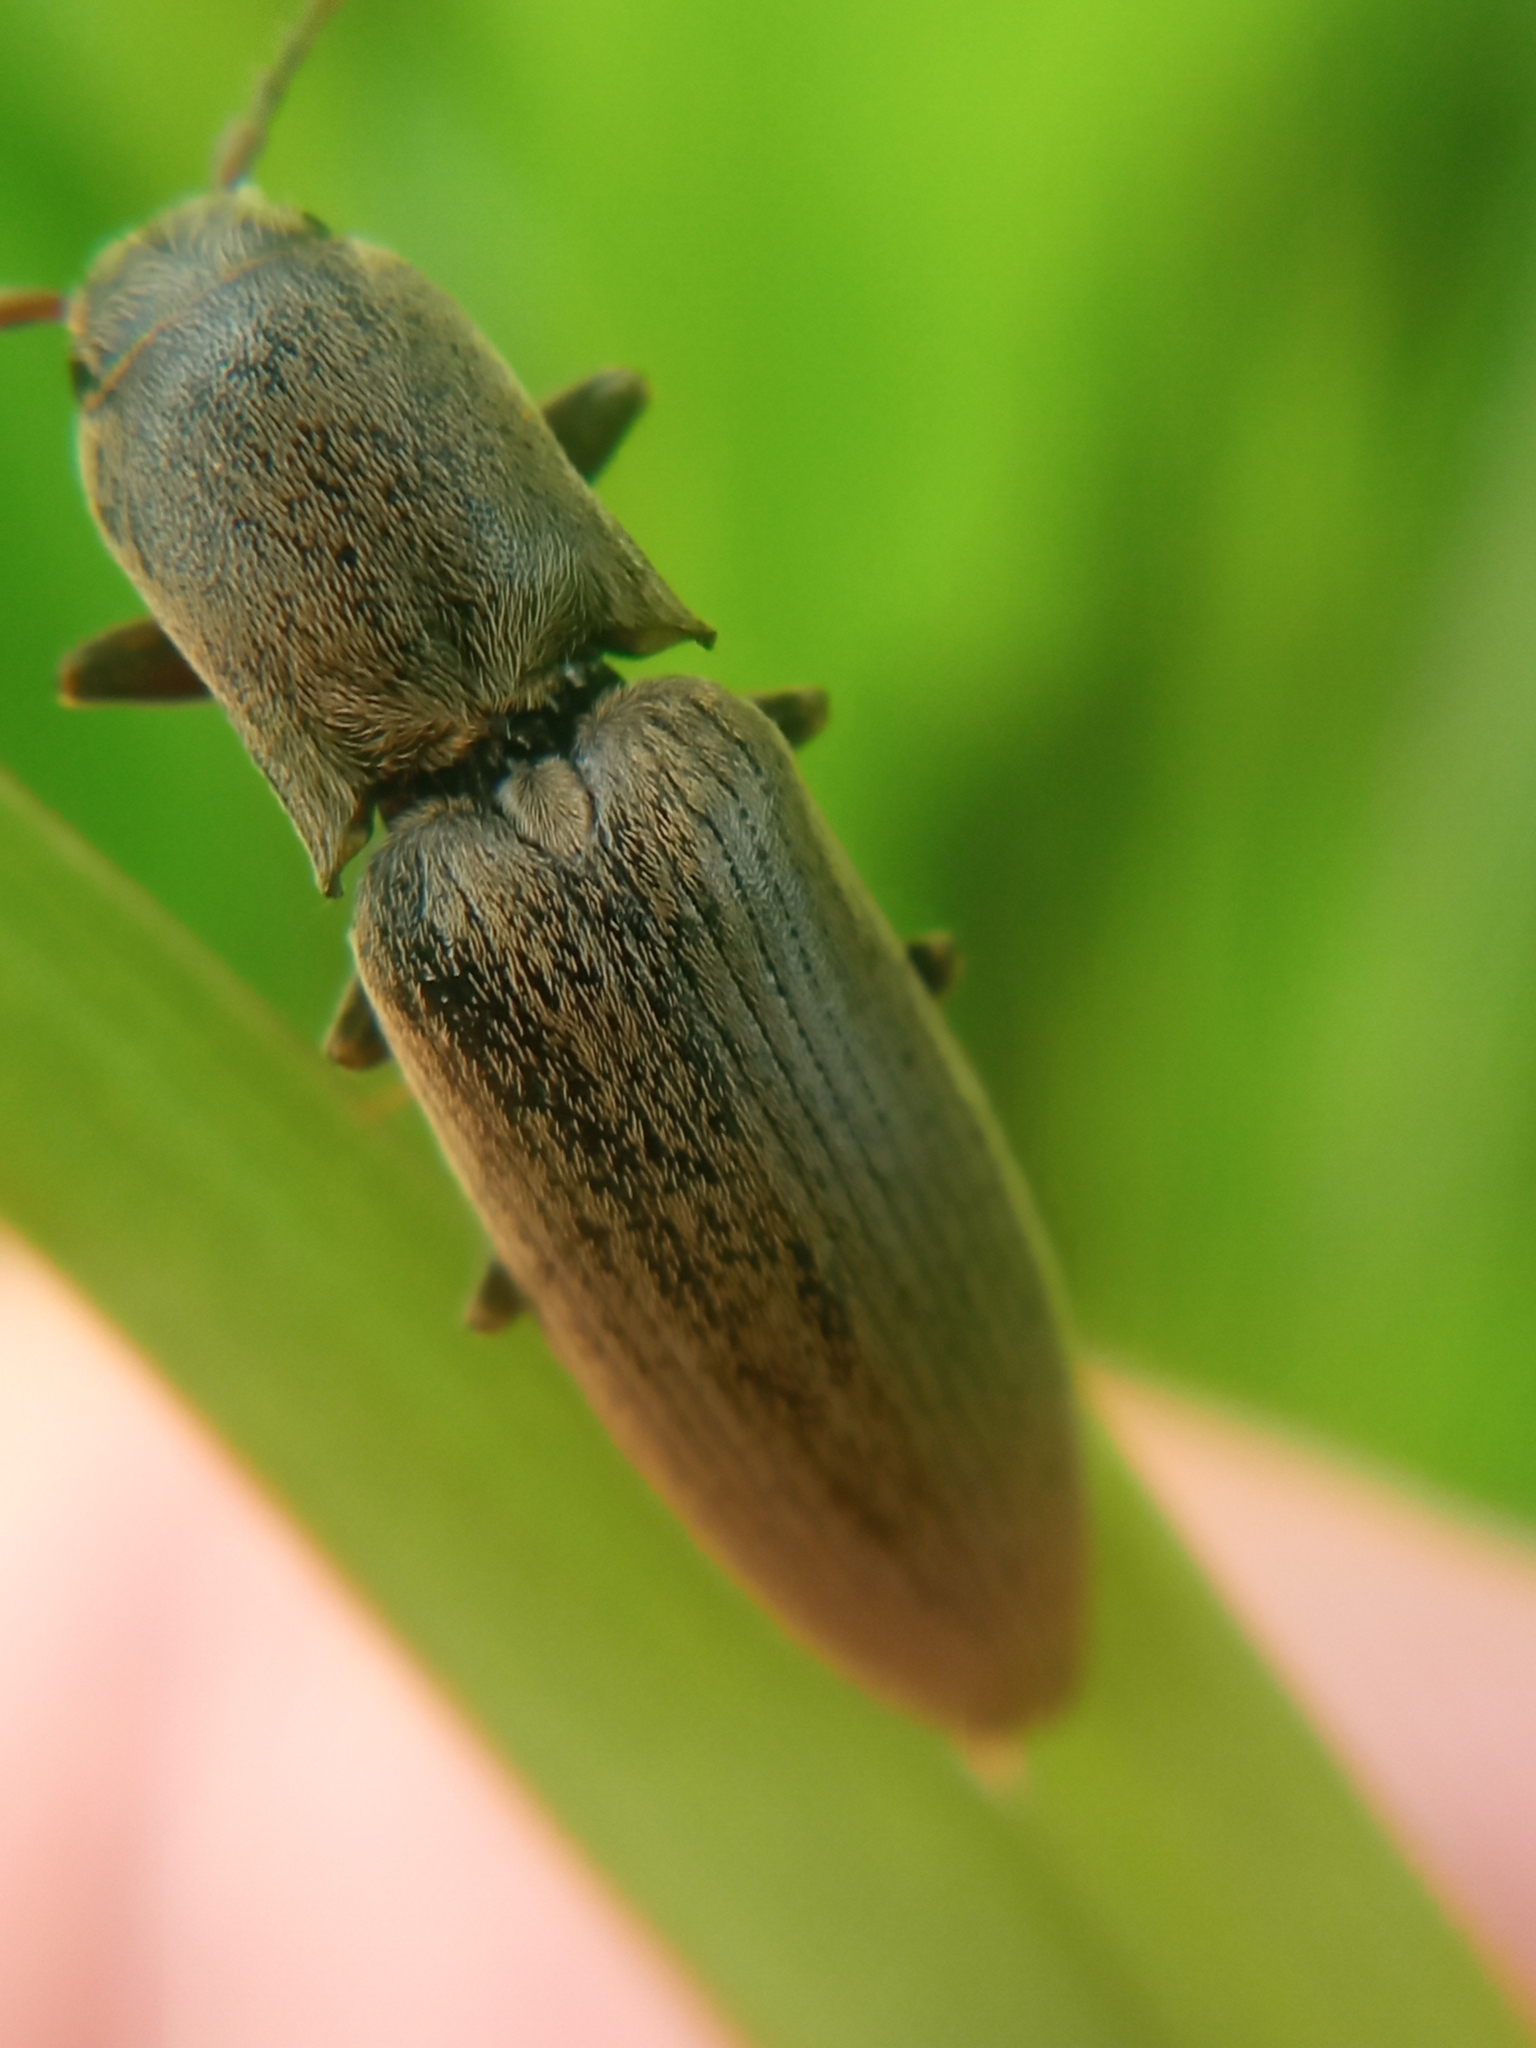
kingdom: Animalia
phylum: Arthropoda
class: Insecta
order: Coleoptera
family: Elateridae
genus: Agriotes
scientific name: Agriotes pilosellus
